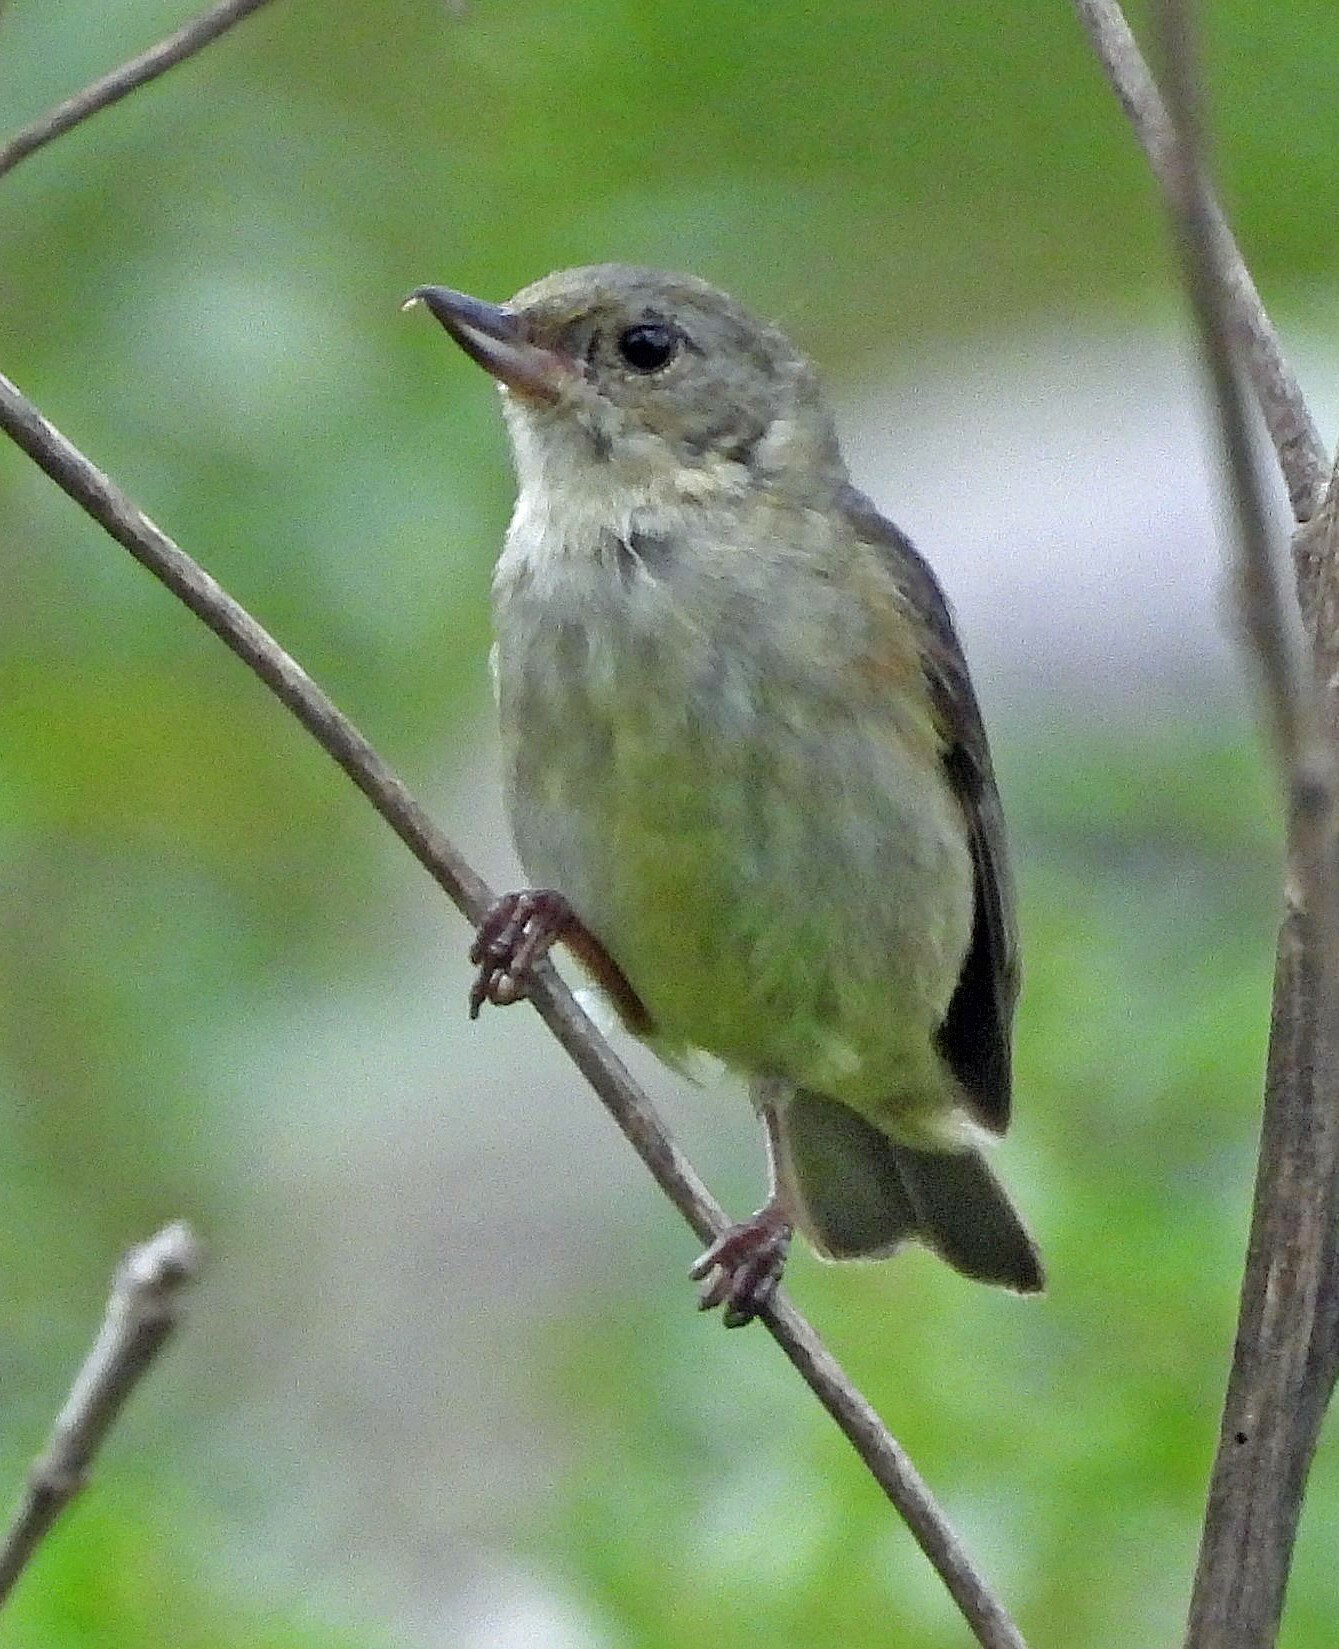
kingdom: Animalia
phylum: Chordata
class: Aves
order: Passeriformes
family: Thraupidae
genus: Diglossa
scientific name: Diglossa sittoides
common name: Rusty flowerpiercer
